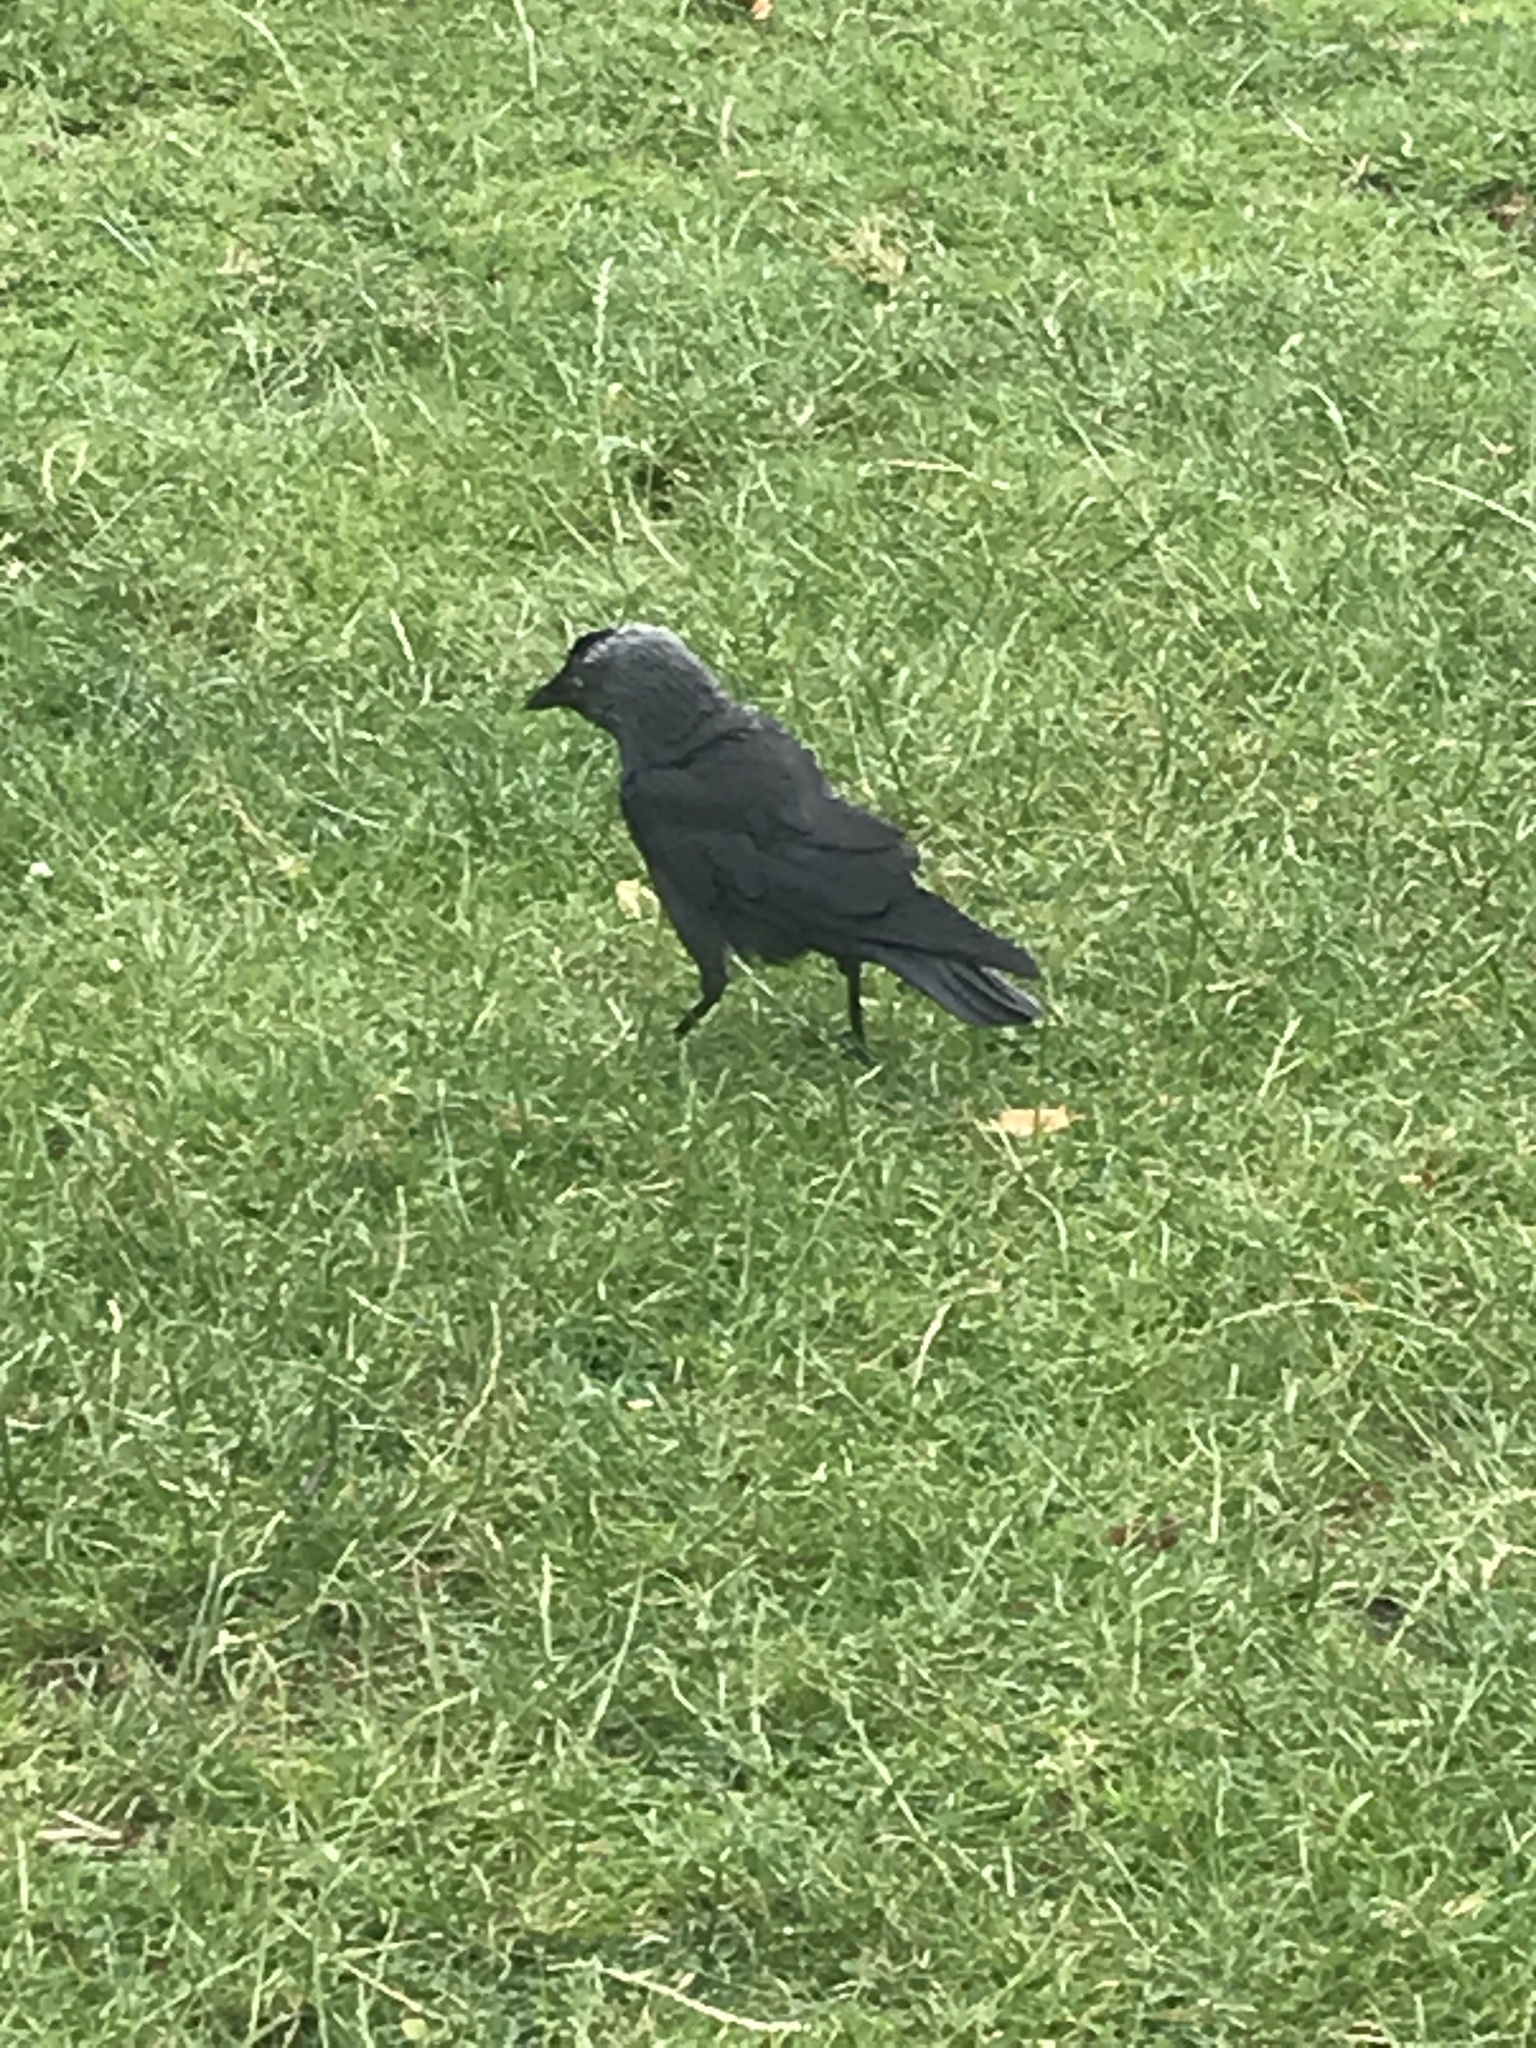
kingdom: Animalia
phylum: Chordata
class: Aves
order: Passeriformes
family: Corvidae
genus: Coloeus
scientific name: Coloeus monedula
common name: Western jackdaw
